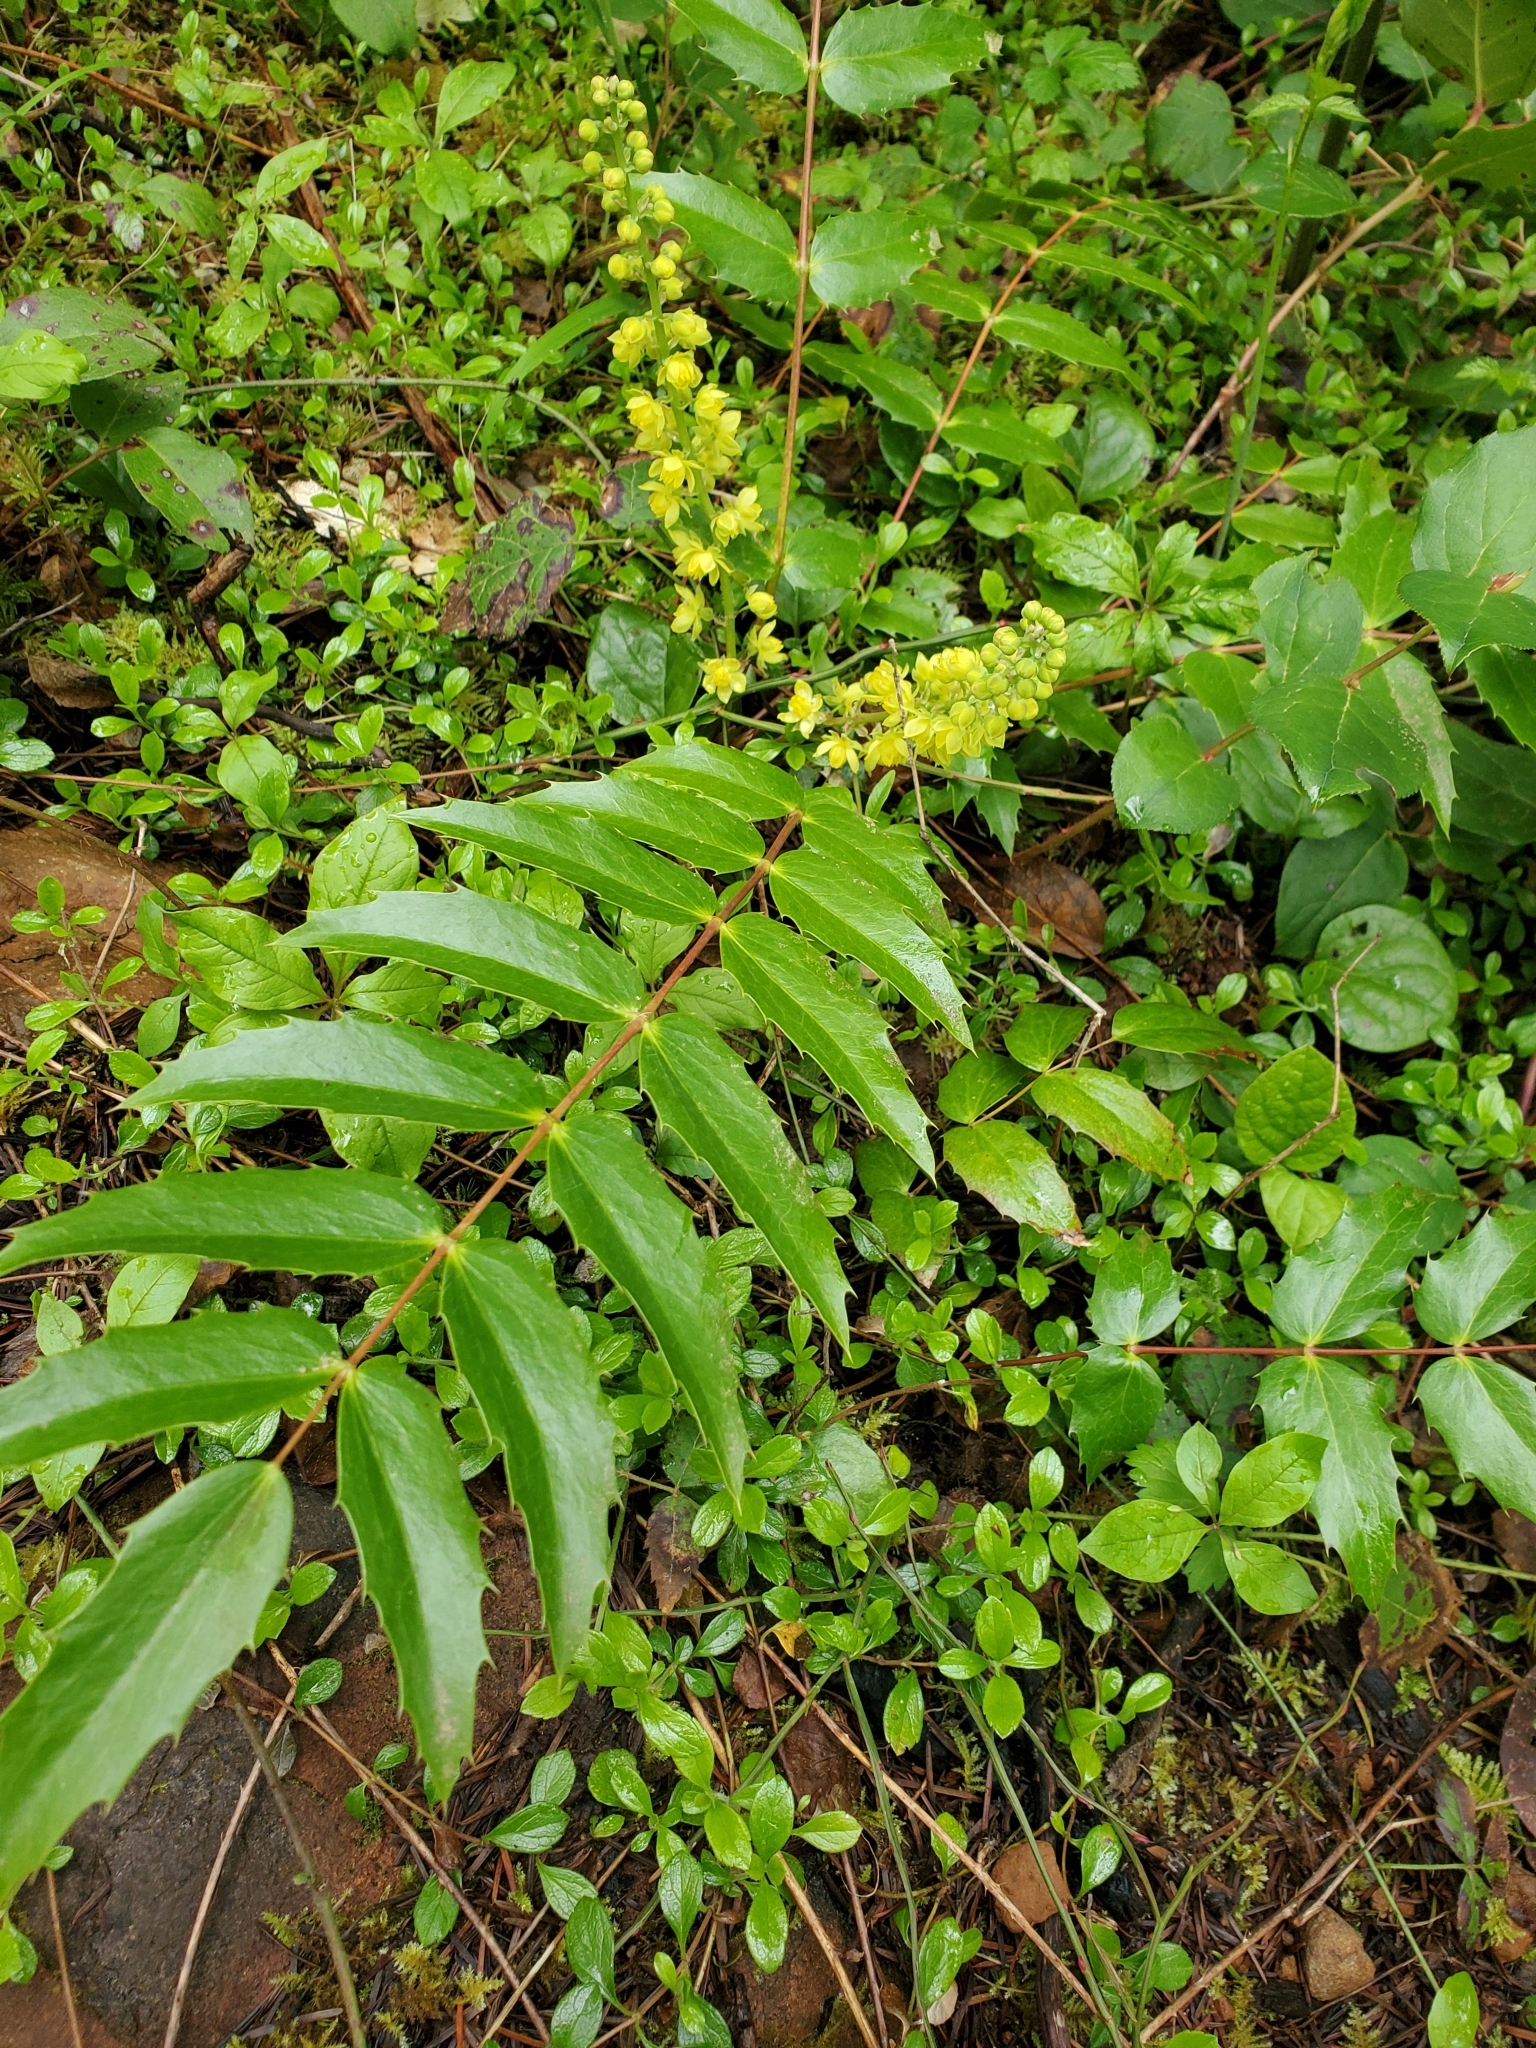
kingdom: Plantae
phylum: Tracheophyta
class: Magnoliopsida
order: Ranunculales
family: Berberidaceae
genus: Mahonia
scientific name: Mahonia nervosa
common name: Cascade oregon-grape
